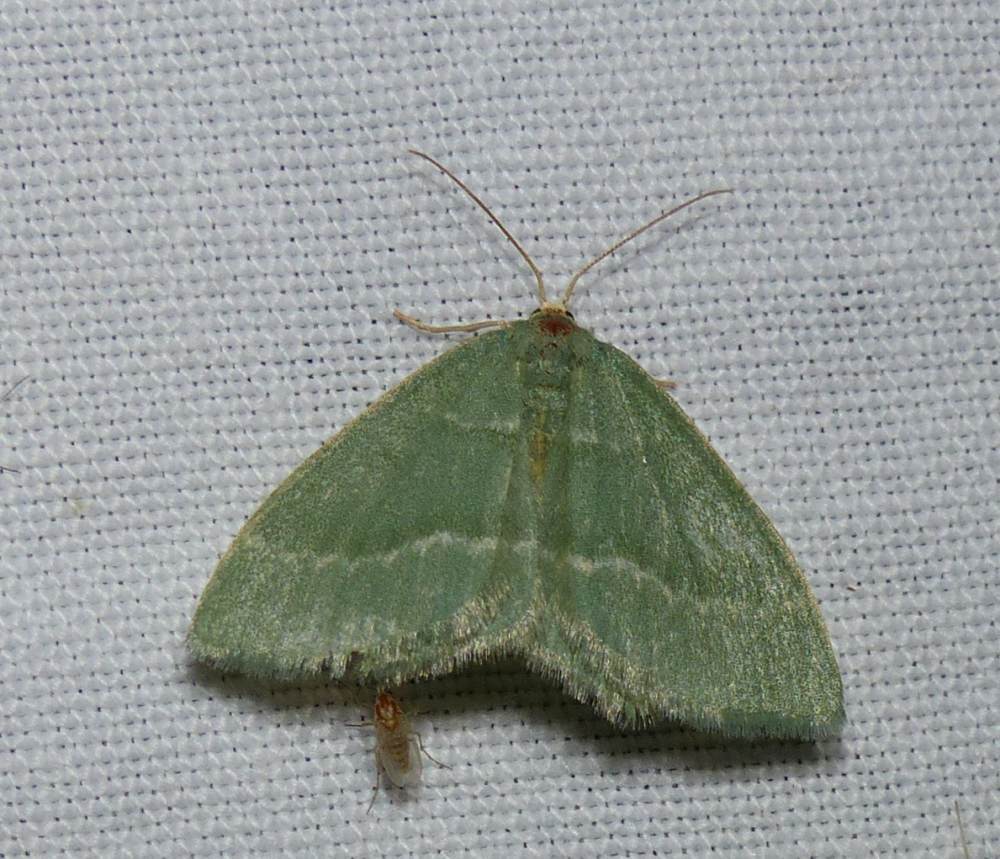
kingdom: Animalia
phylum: Arthropoda
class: Insecta
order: Lepidoptera
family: Geometridae
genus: Thalera
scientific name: Thalera pistasciaria
